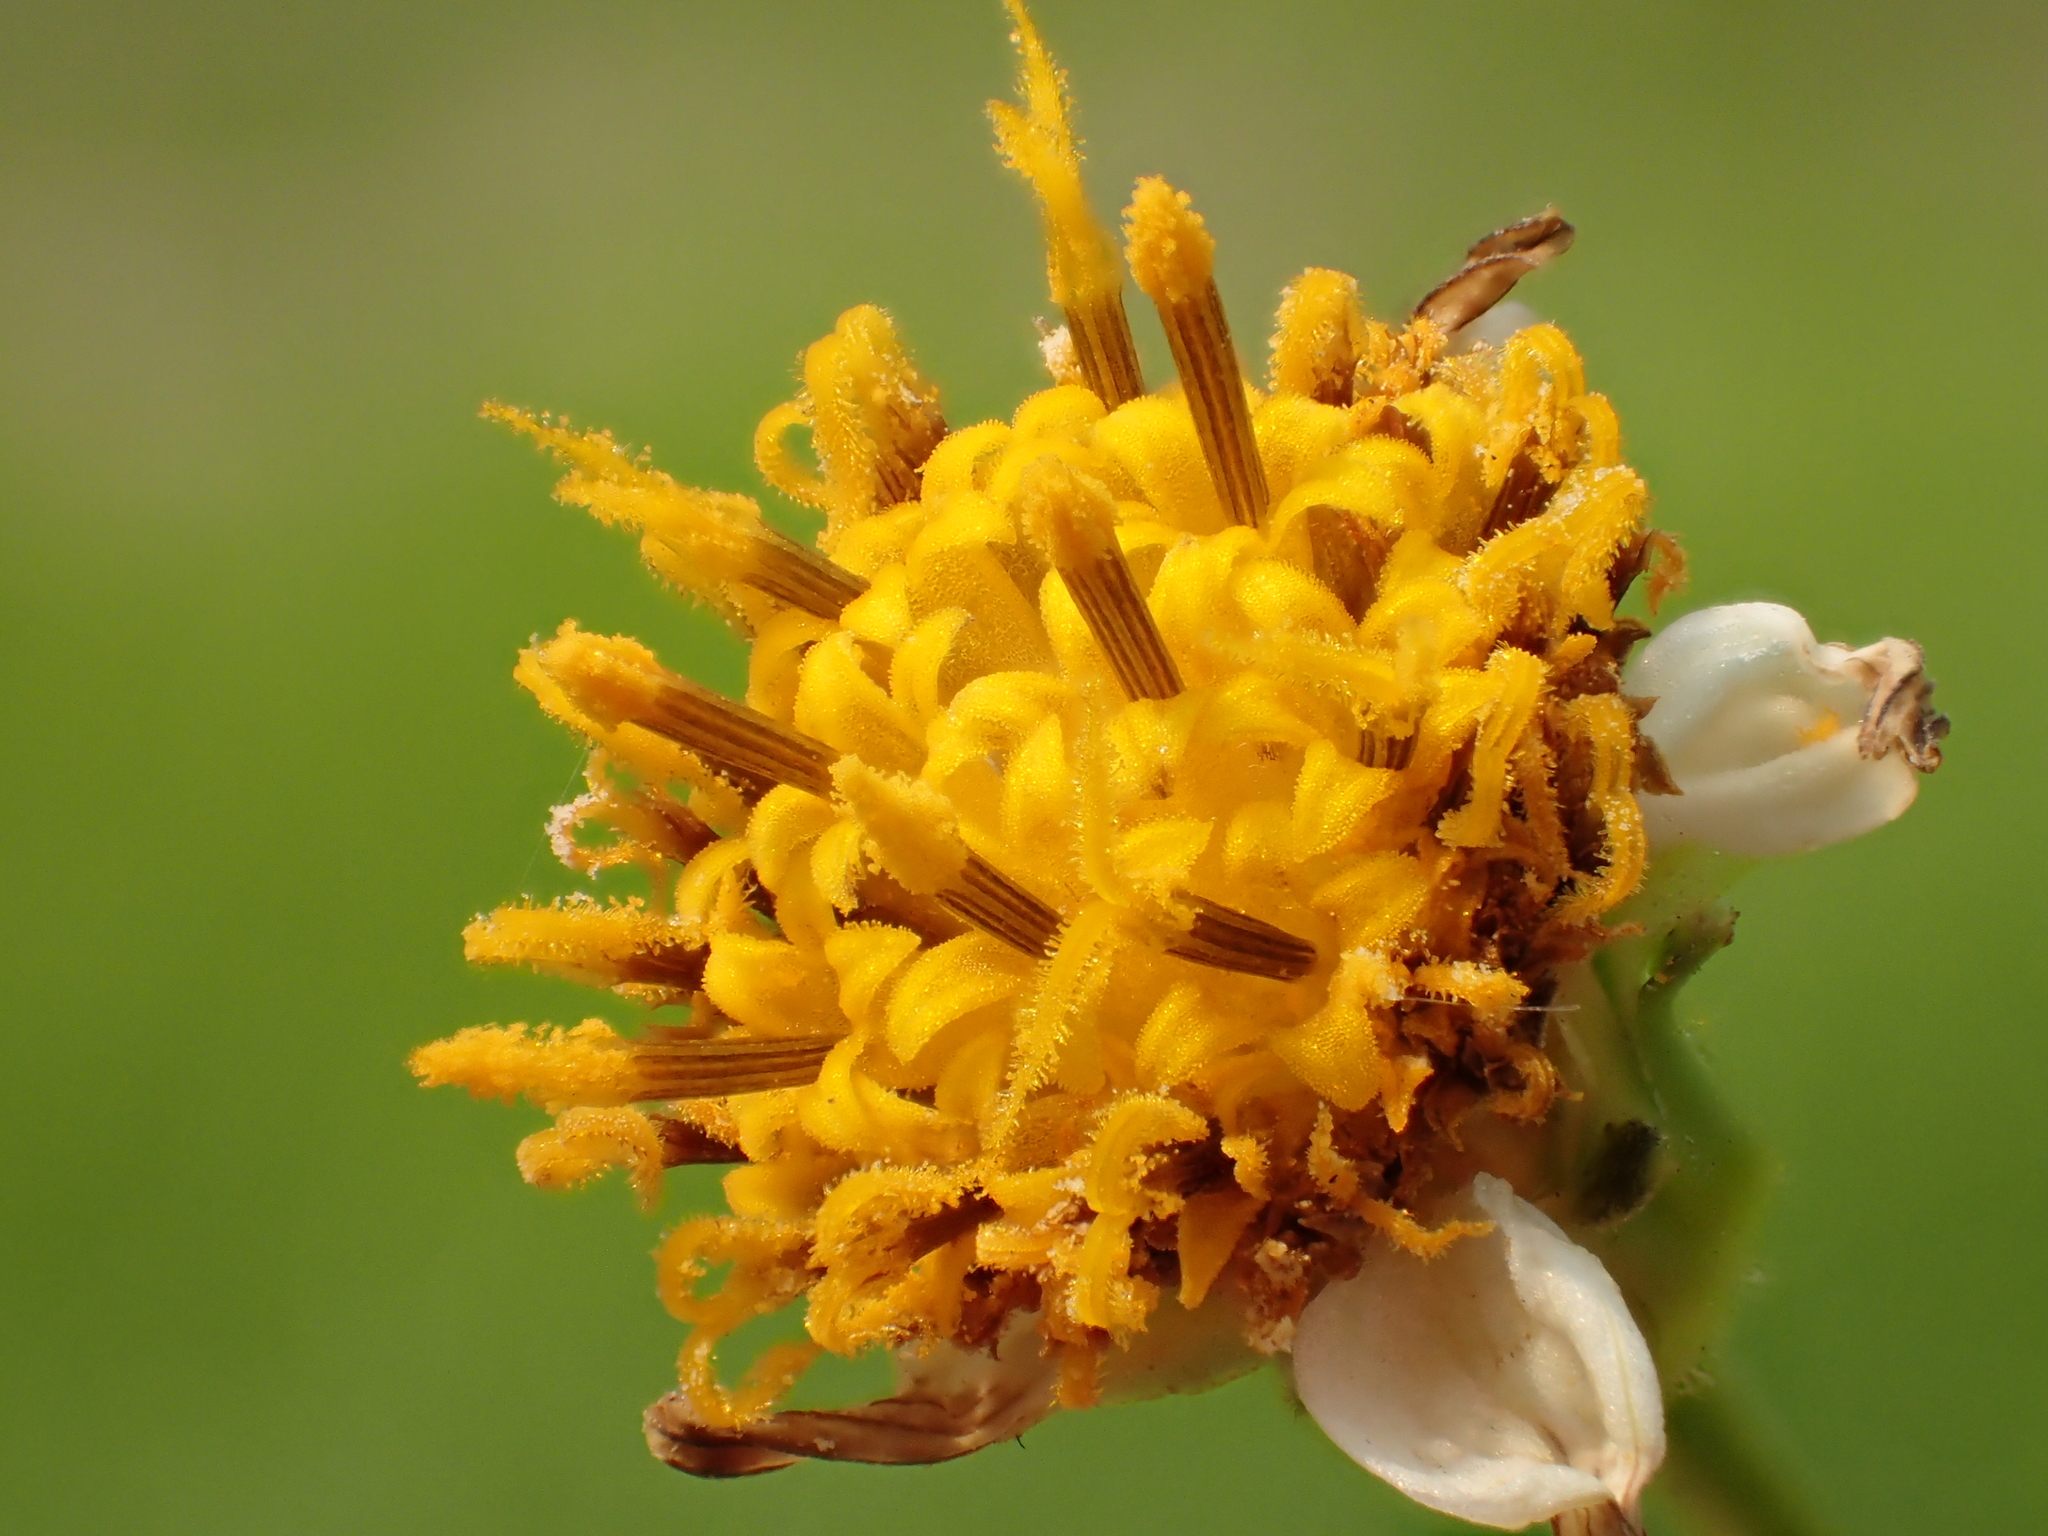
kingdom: Plantae
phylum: Tracheophyta
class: Magnoliopsida
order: Asterales
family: Asteraceae
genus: Bidens
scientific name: Bidens alba
